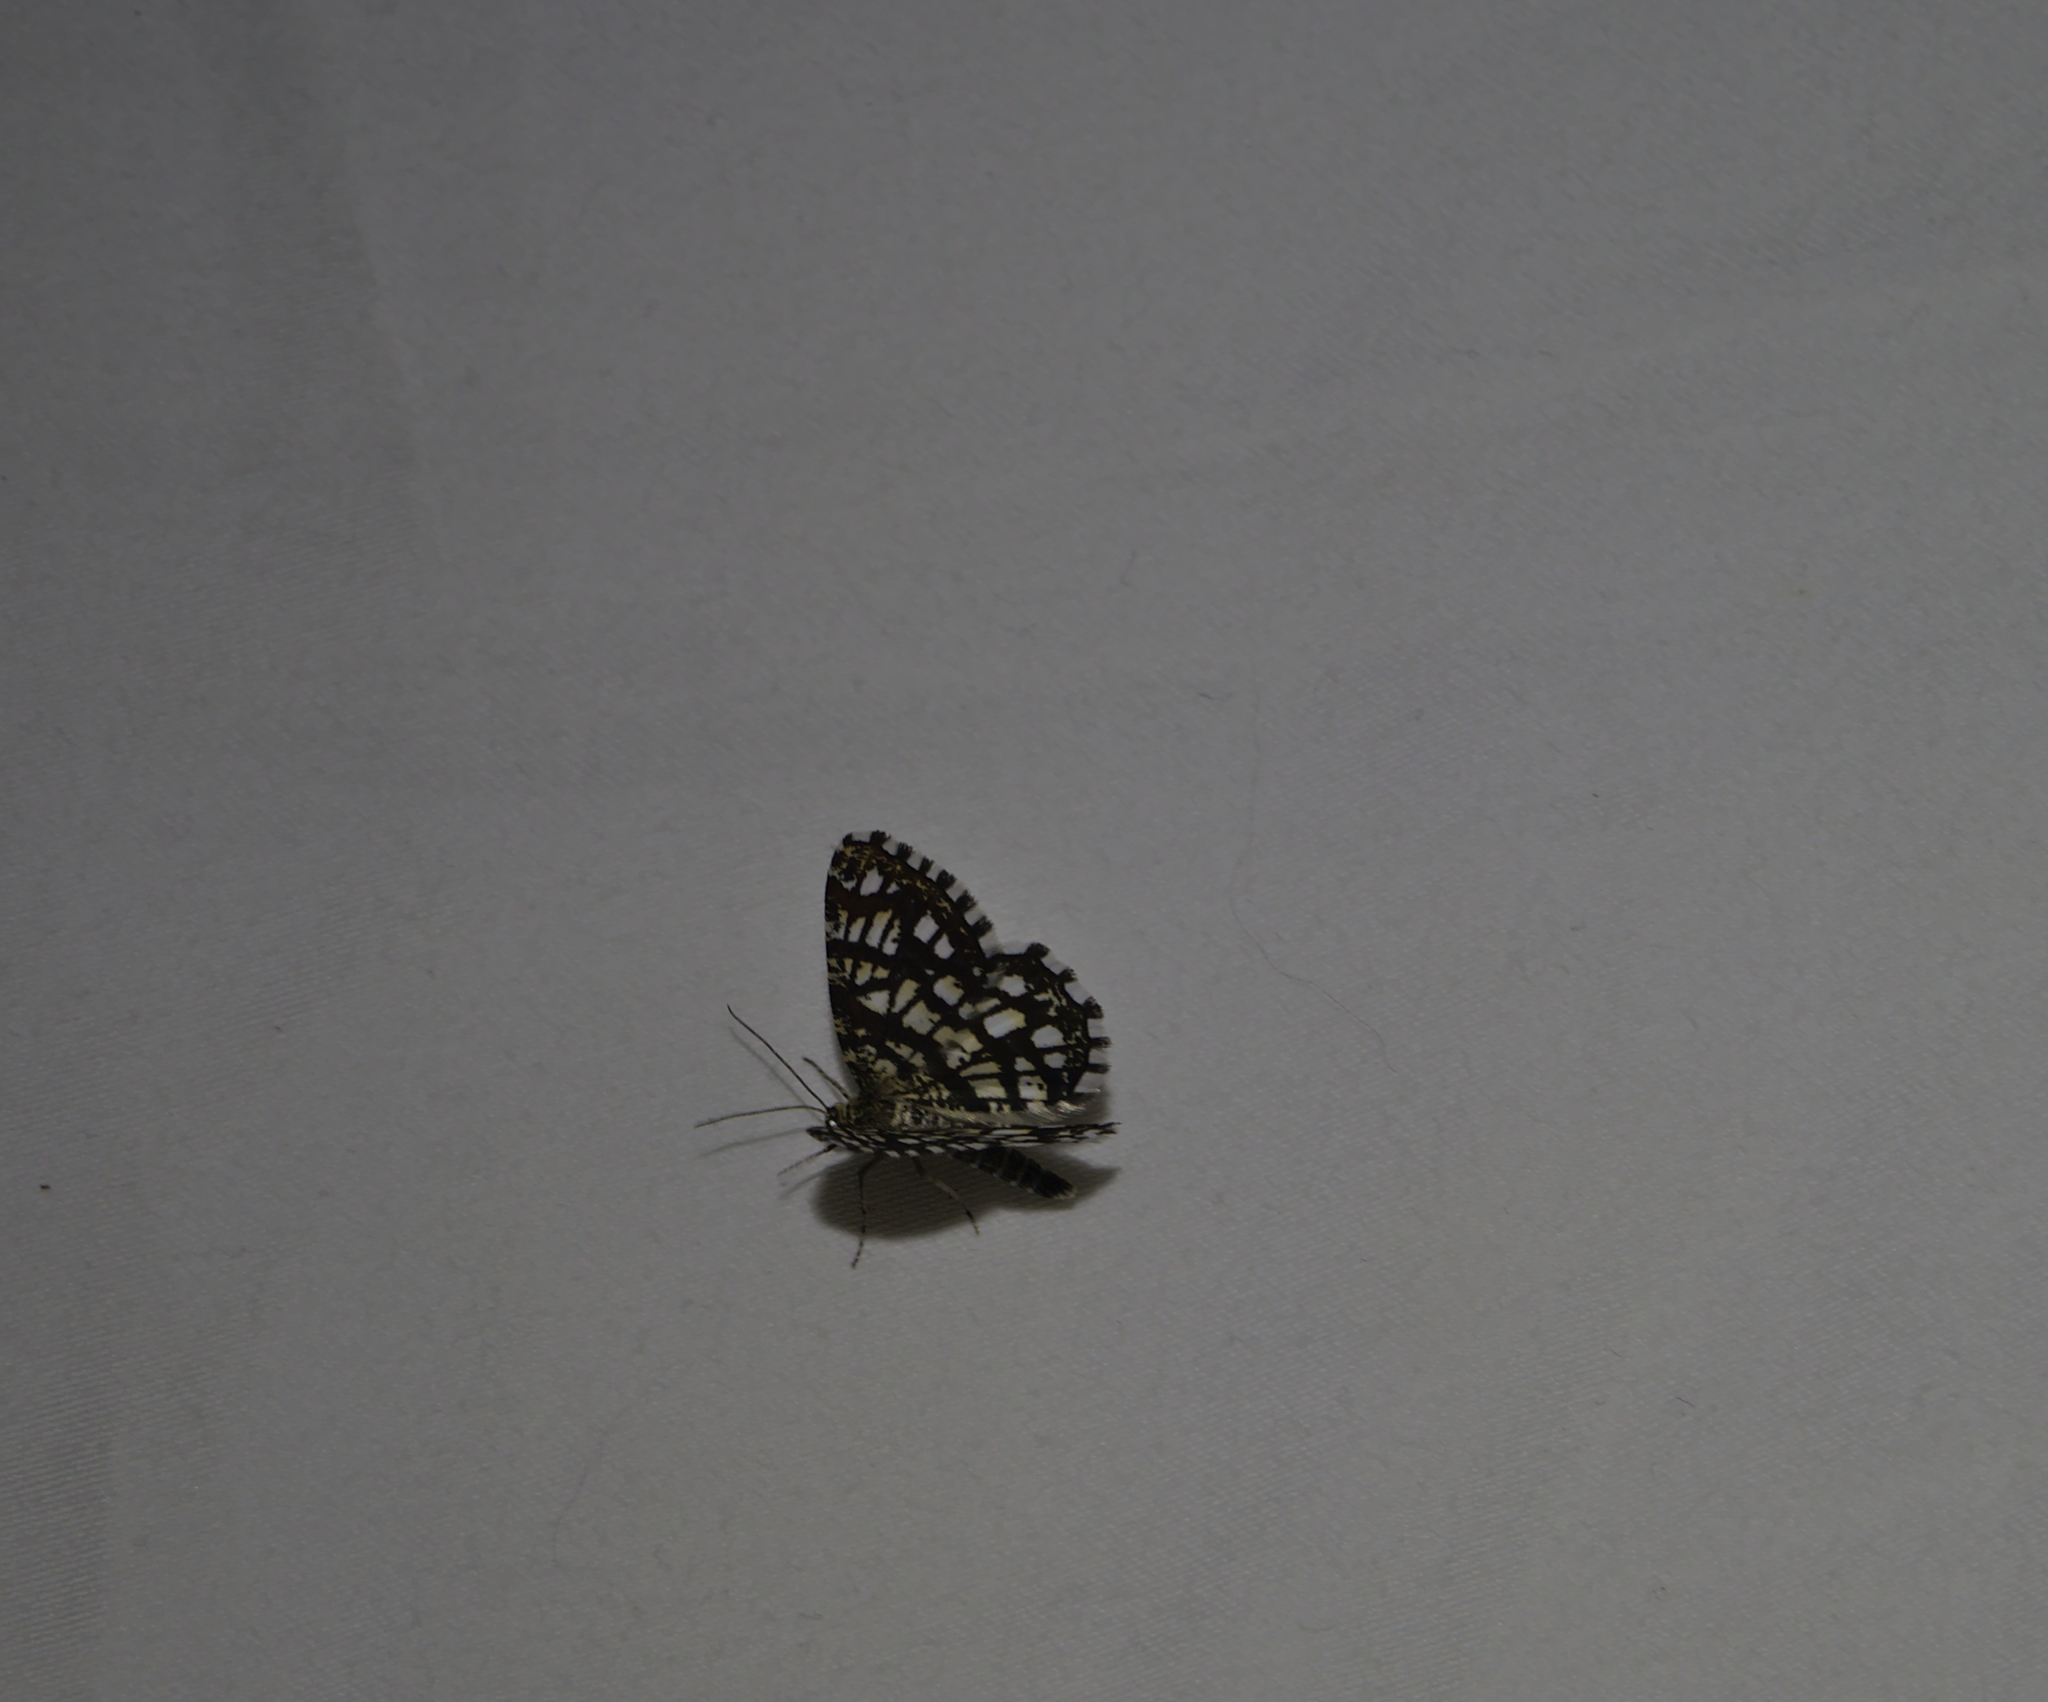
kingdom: Animalia
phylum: Arthropoda
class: Insecta
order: Lepidoptera
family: Geometridae
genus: Chiasmia
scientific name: Chiasmia clathrata
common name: Latticed heath
